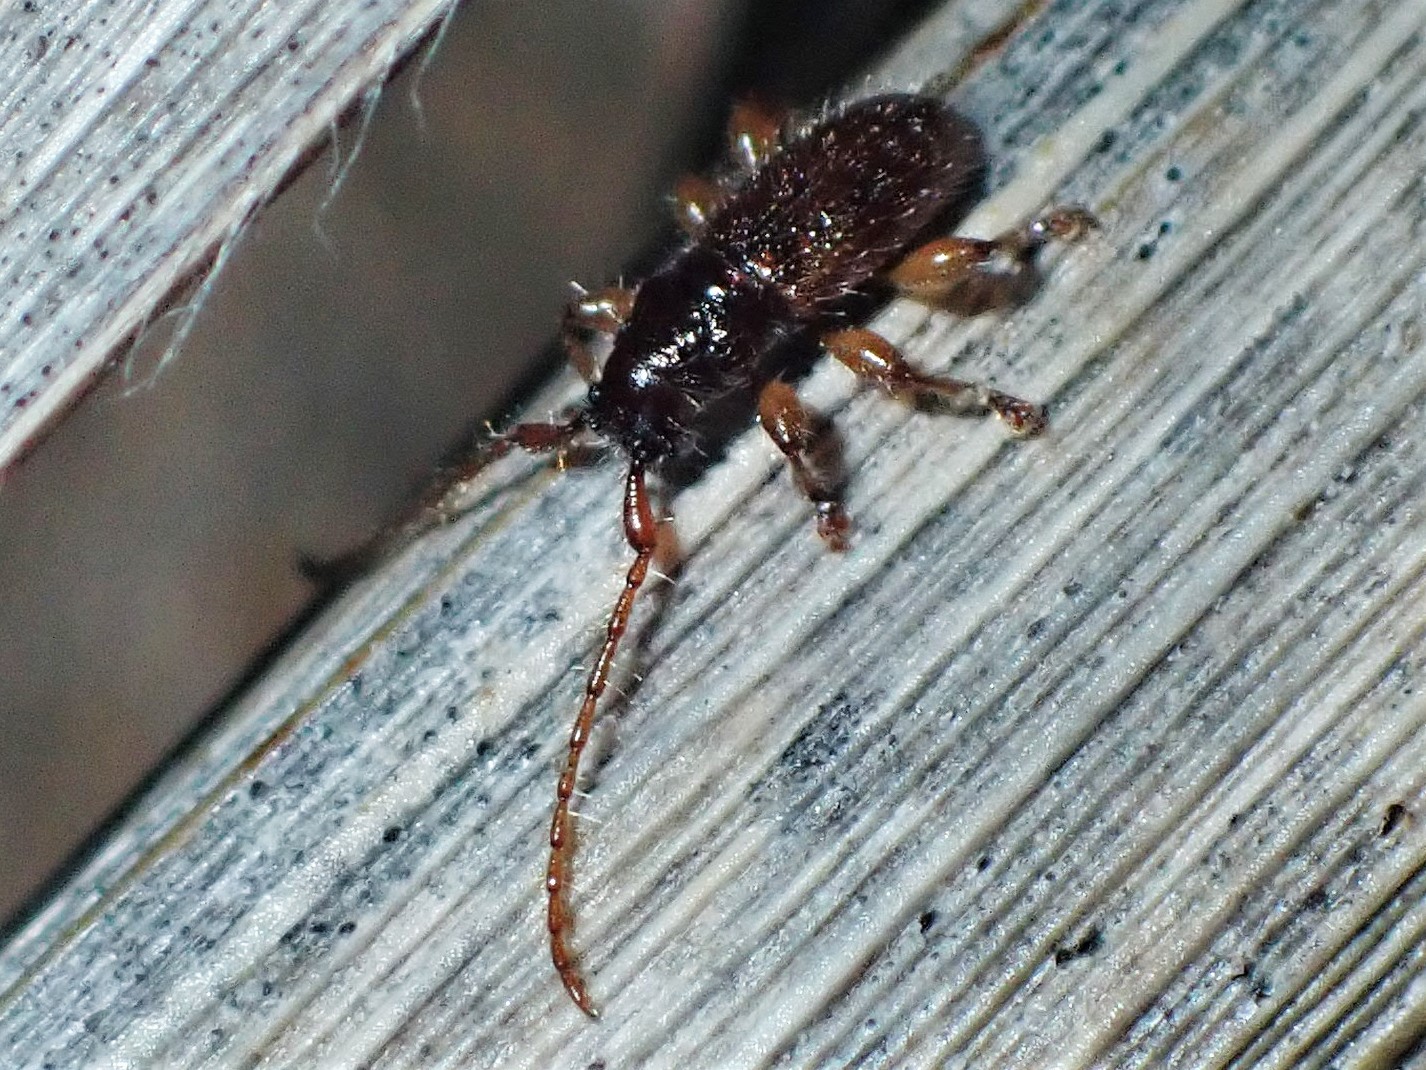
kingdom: Animalia
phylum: Arthropoda
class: Insecta
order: Coleoptera
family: Cerambycidae
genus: Microlamia
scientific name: Microlamia pygmaea
